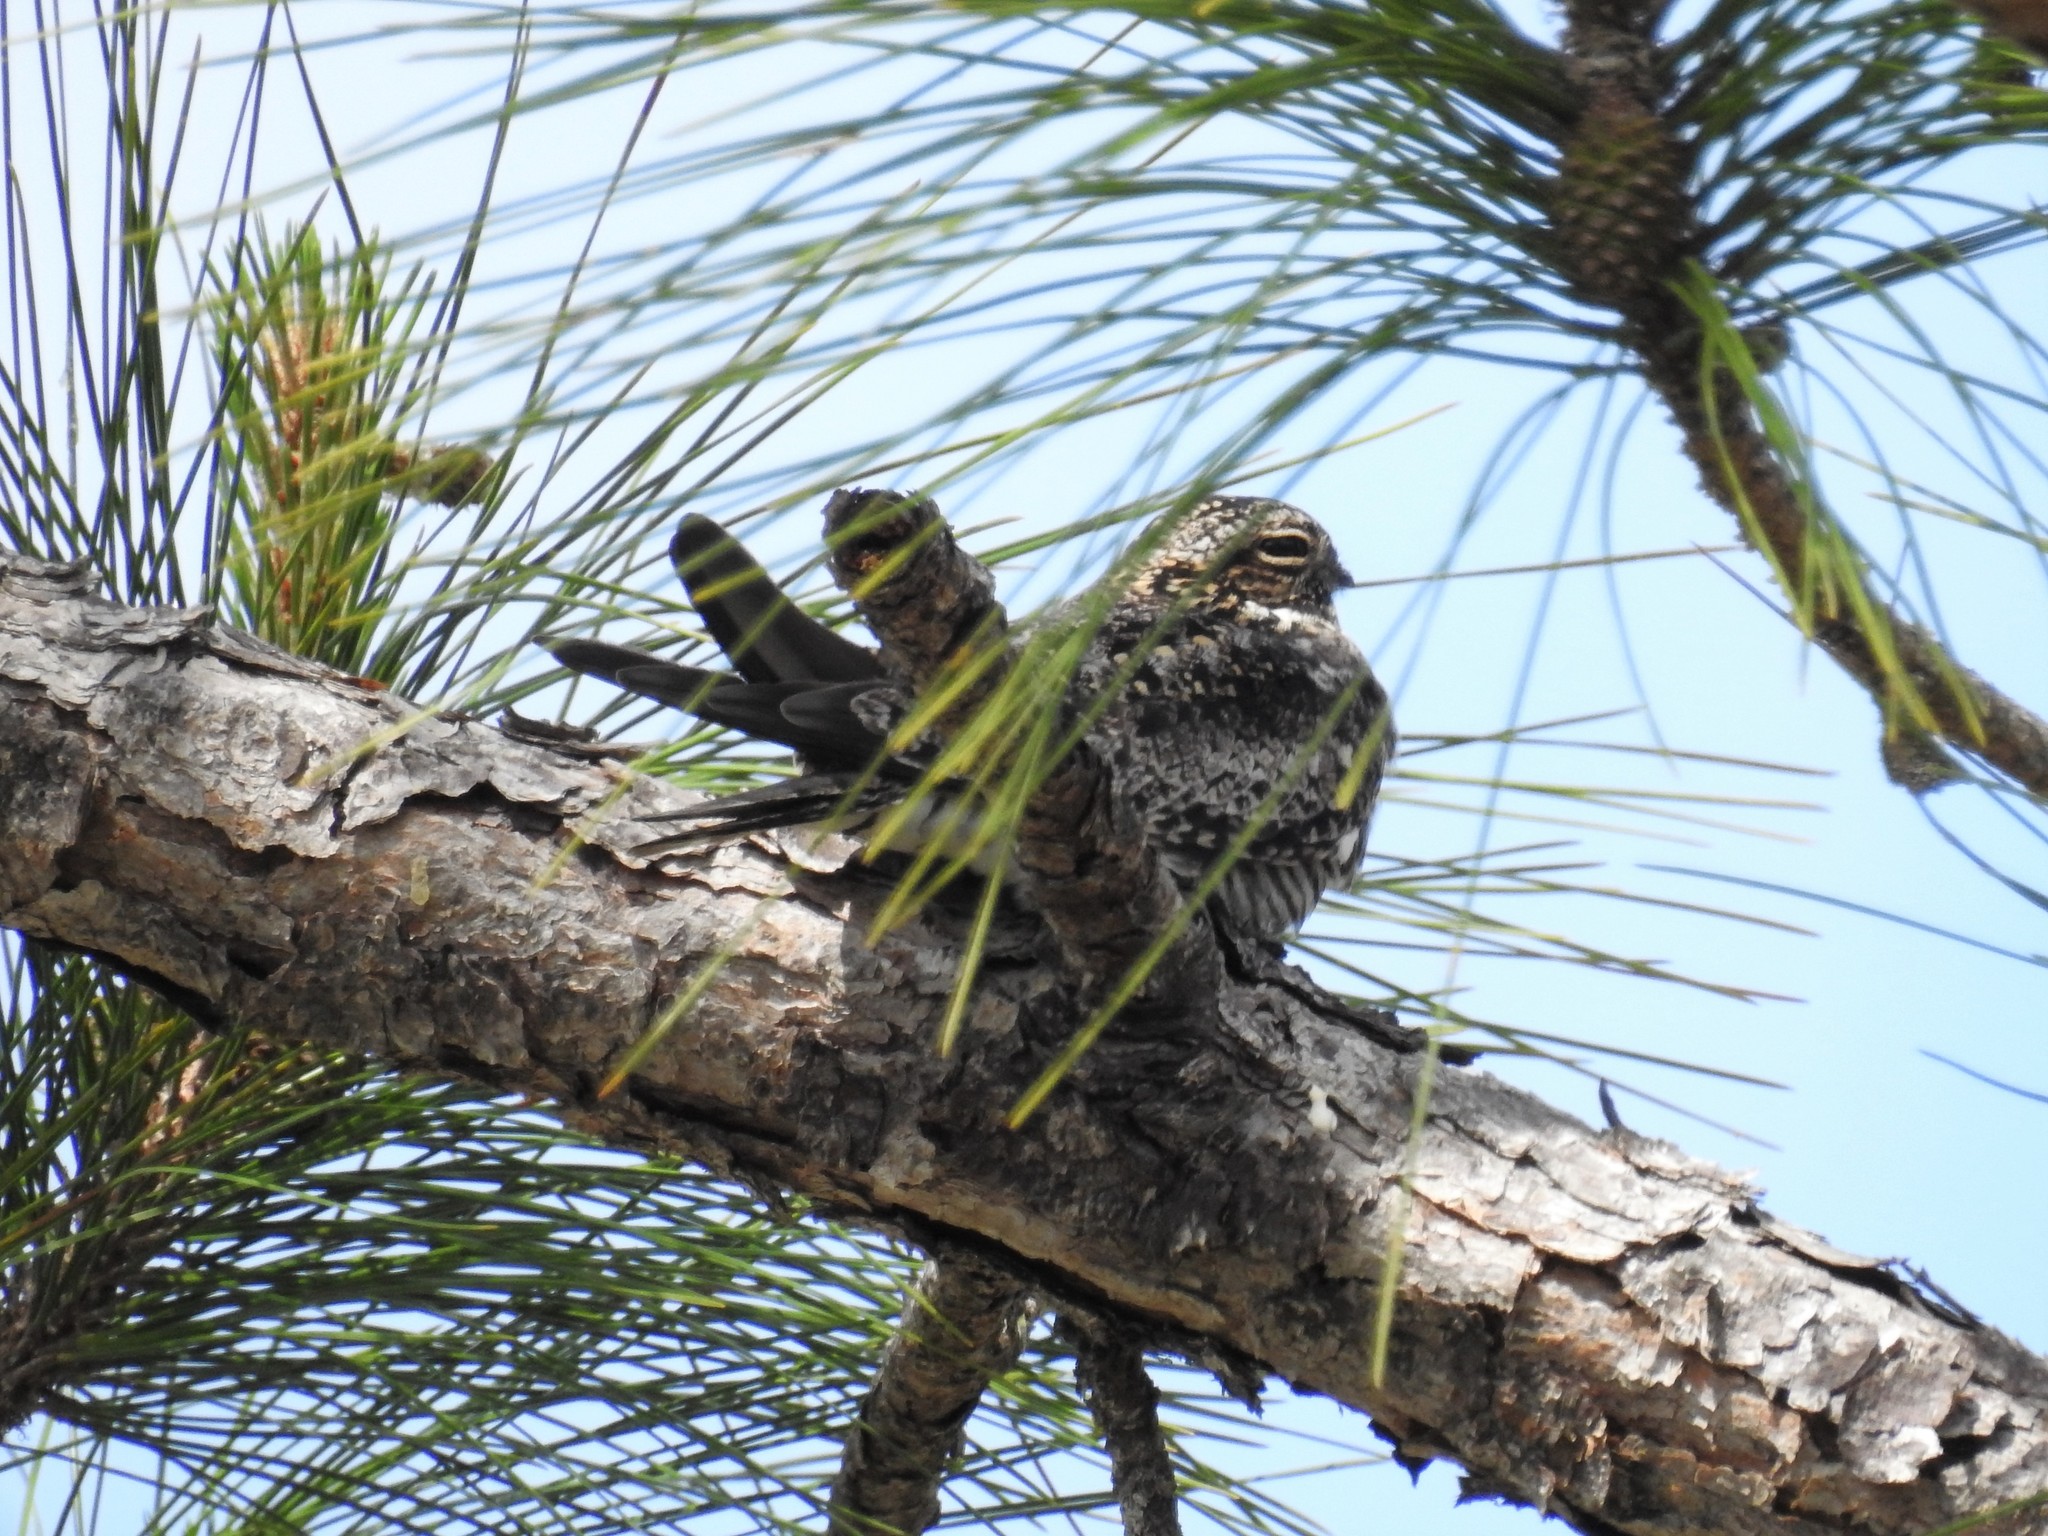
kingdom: Animalia
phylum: Chordata
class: Aves
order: Caprimulgiformes
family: Caprimulgidae
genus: Chordeiles
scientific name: Chordeiles minor
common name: Common nighthawk
